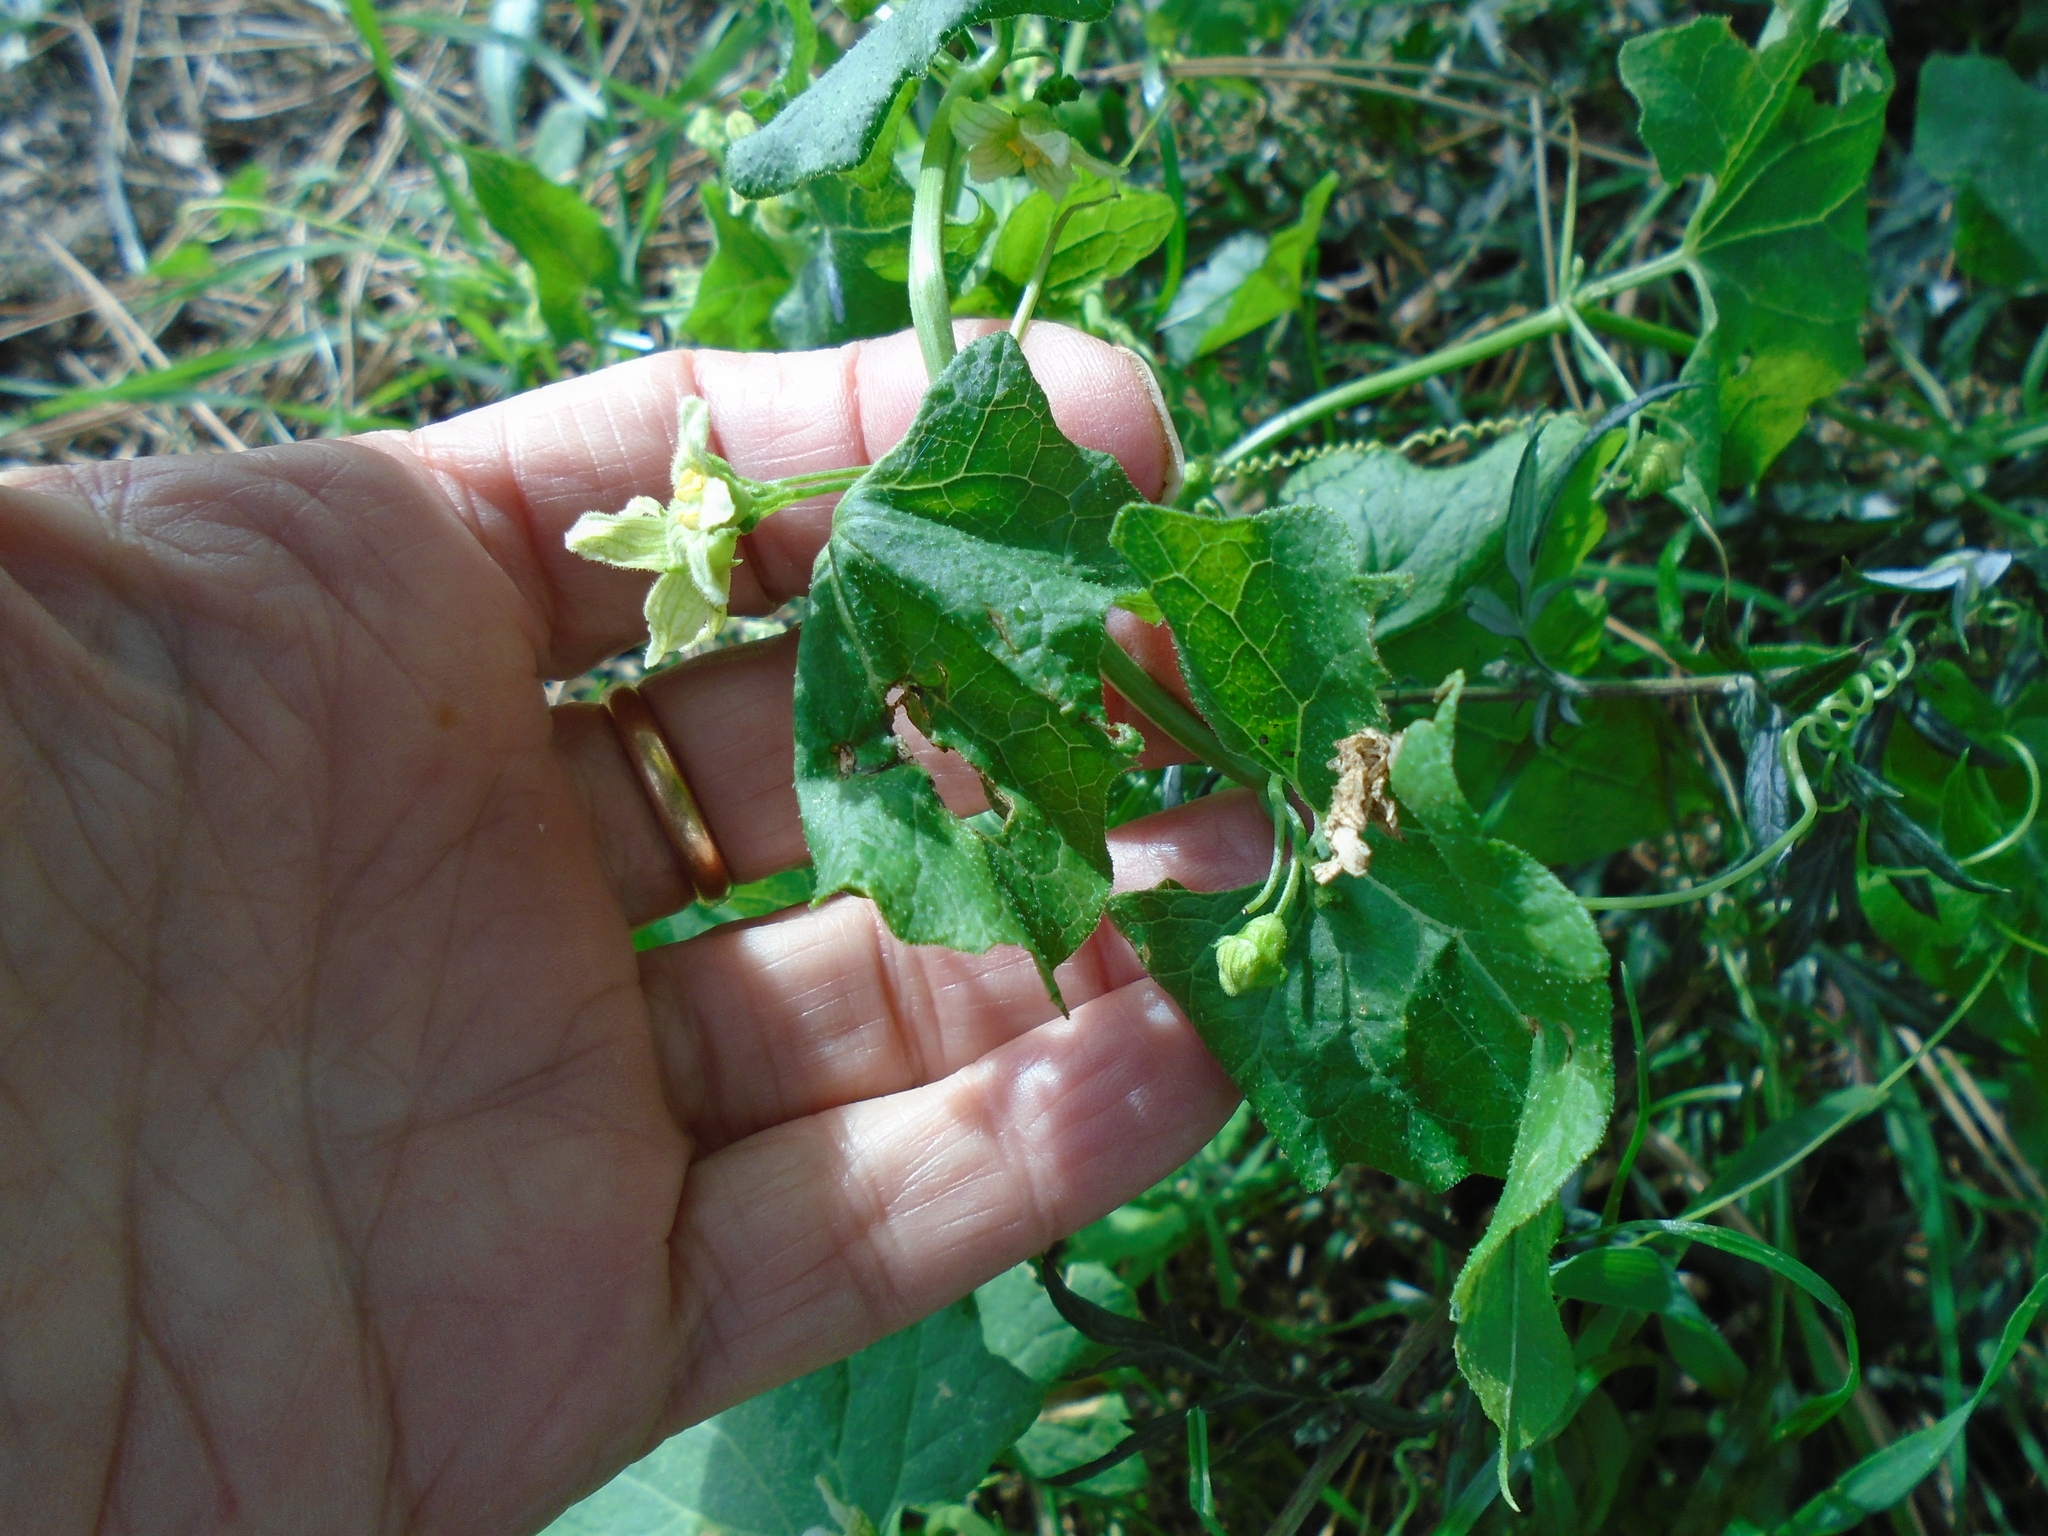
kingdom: Plantae
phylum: Tracheophyta
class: Magnoliopsida
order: Cucurbitales
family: Cucurbitaceae
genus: Bryonia
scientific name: Bryonia dioica
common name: White bryony
